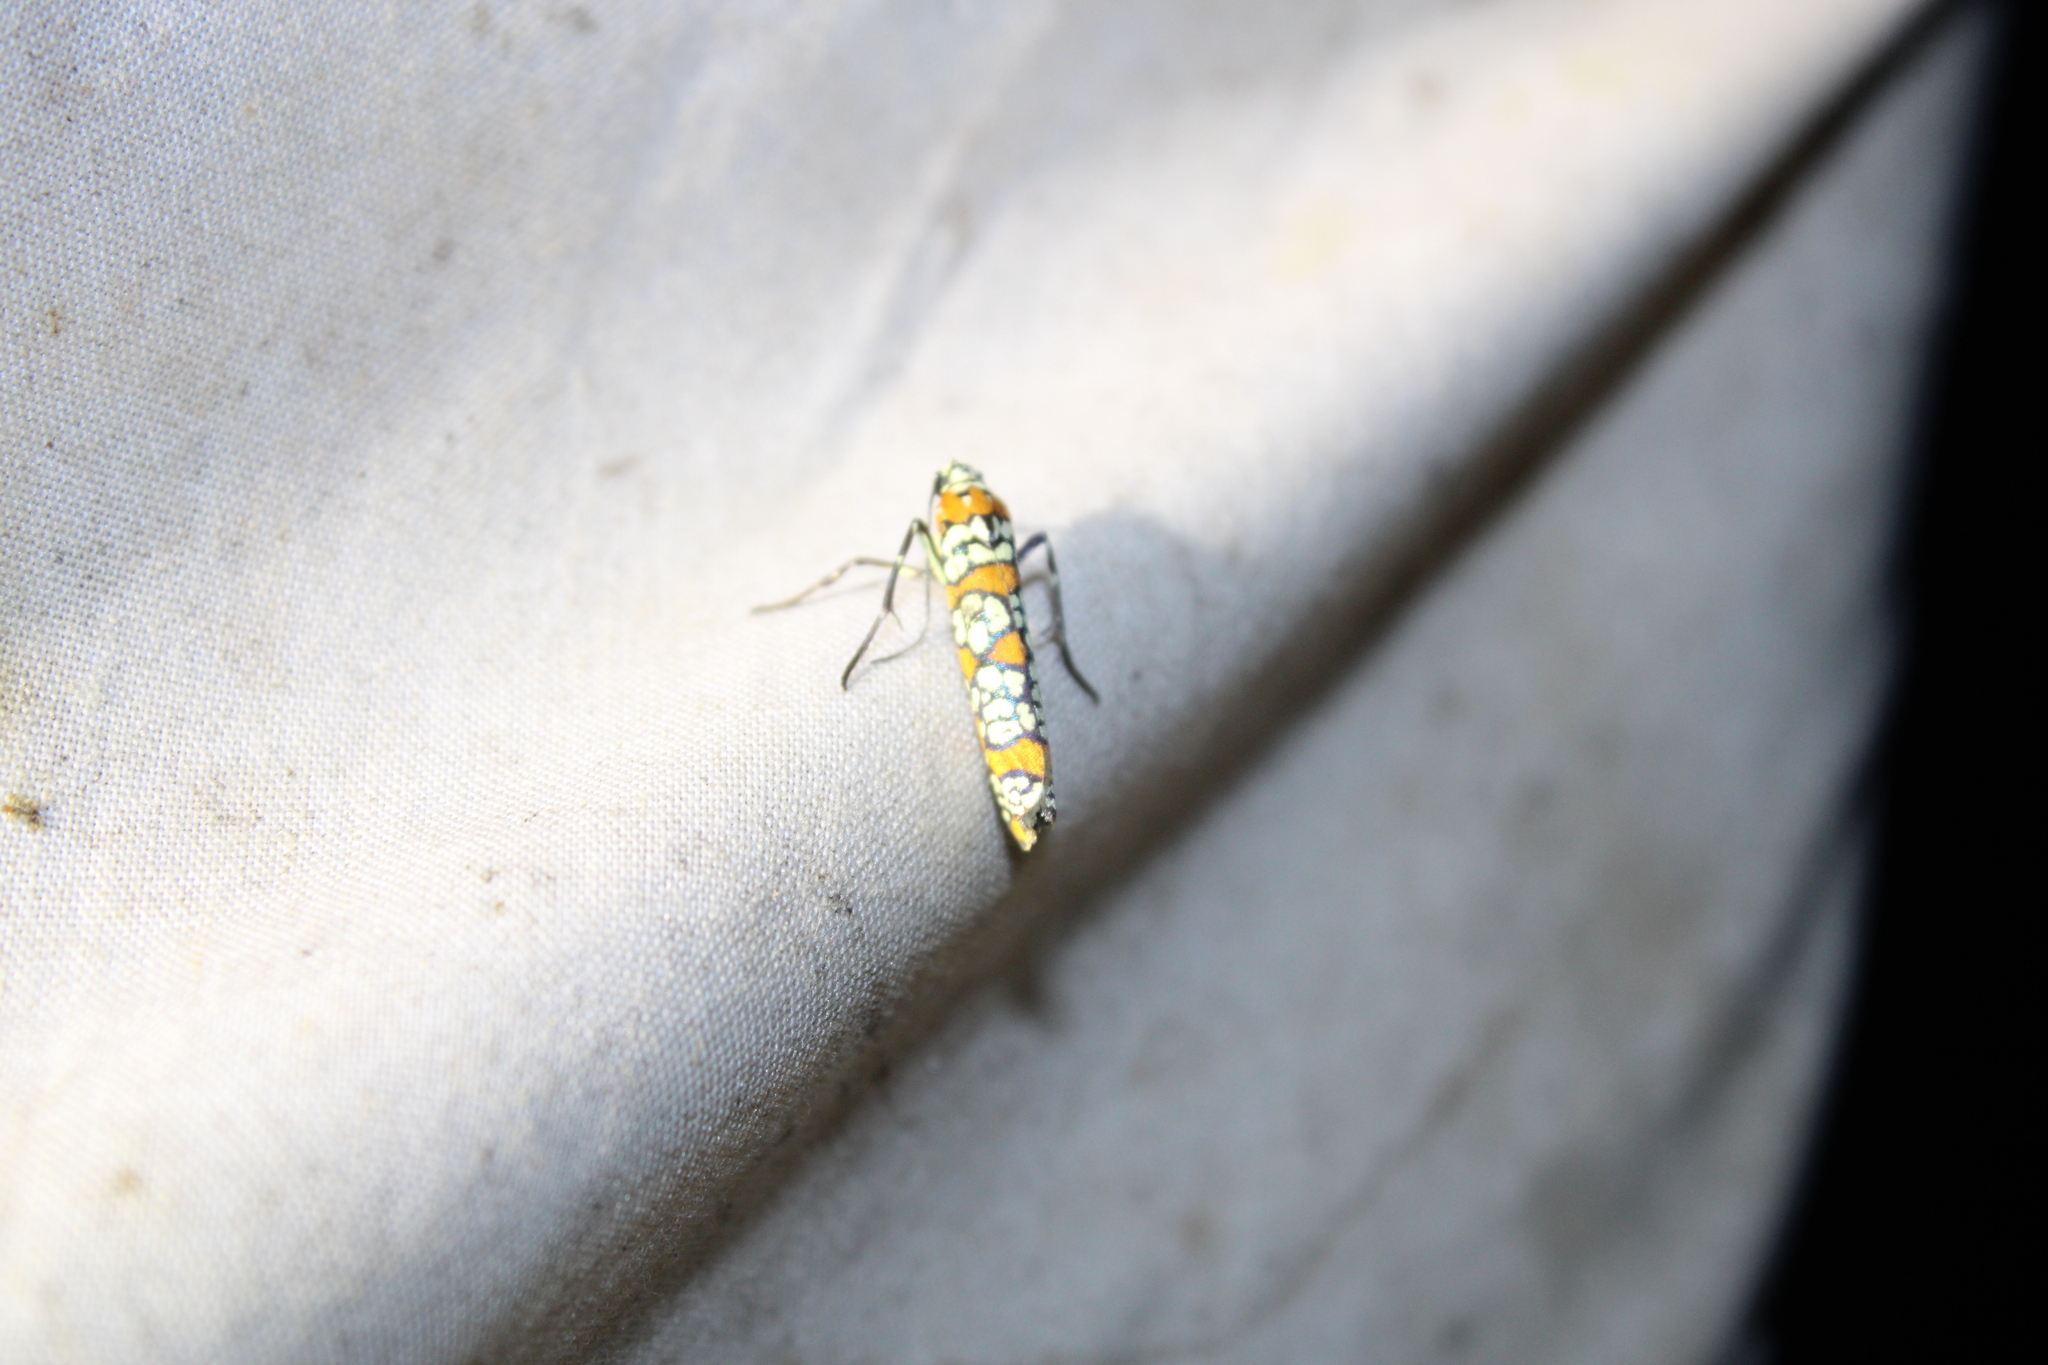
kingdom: Animalia
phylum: Arthropoda
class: Insecta
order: Lepidoptera
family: Attevidae
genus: Atteva
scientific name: Atteva punctella
